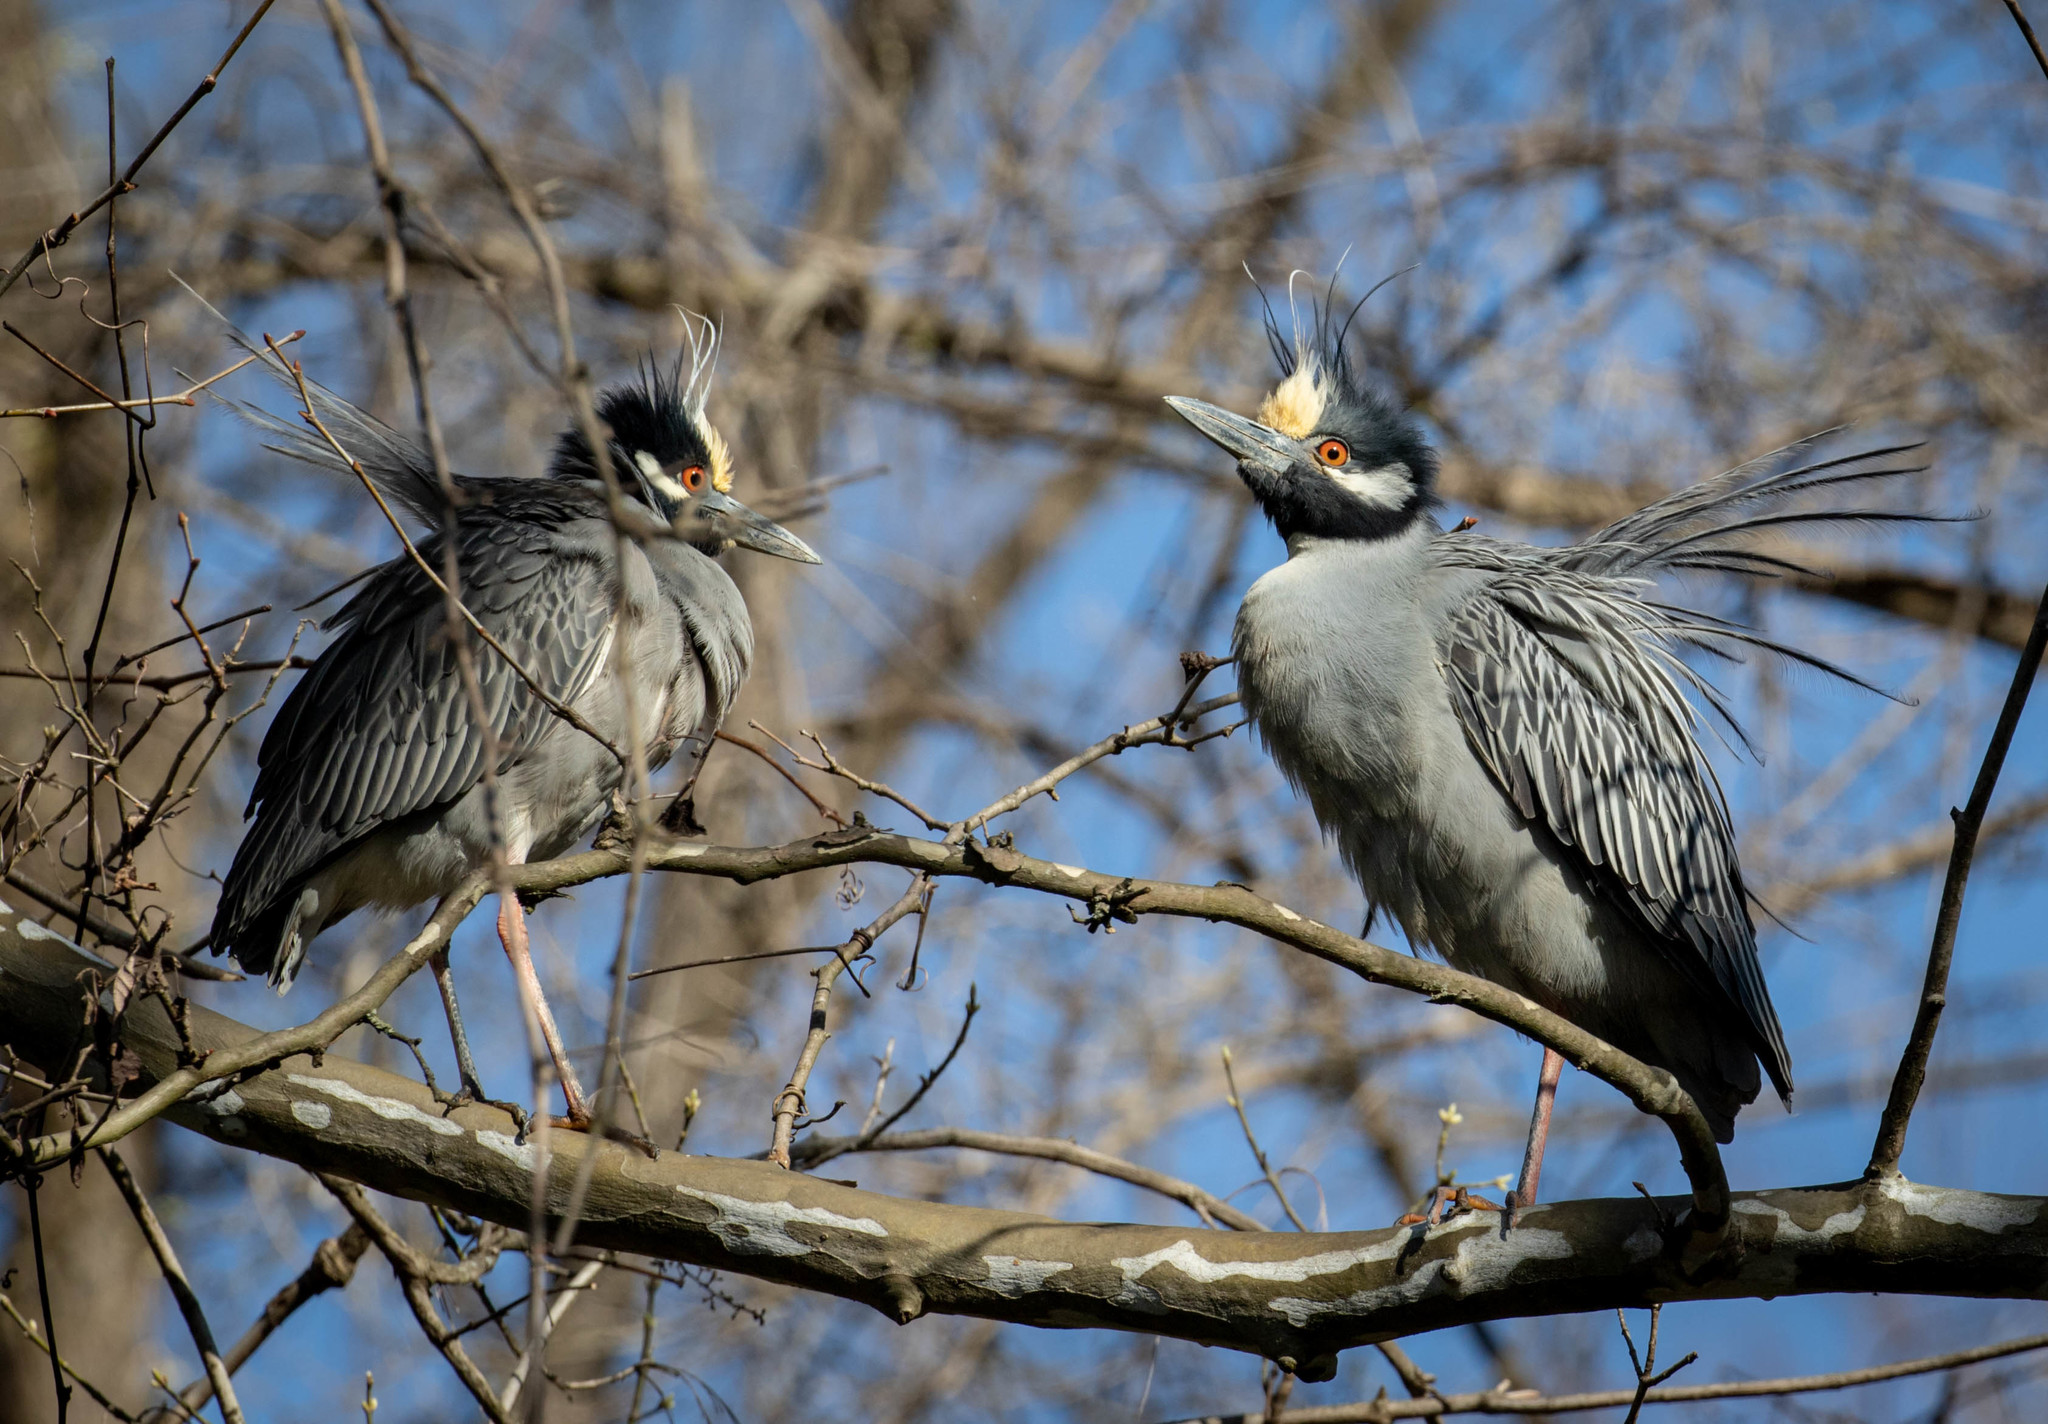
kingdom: Animalia
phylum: Chordata
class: Aves
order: Pelecaniformes
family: Ardeidae
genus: Nyctanassa
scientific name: Nyctanassa violacea
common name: Yellow-crowned night heron
